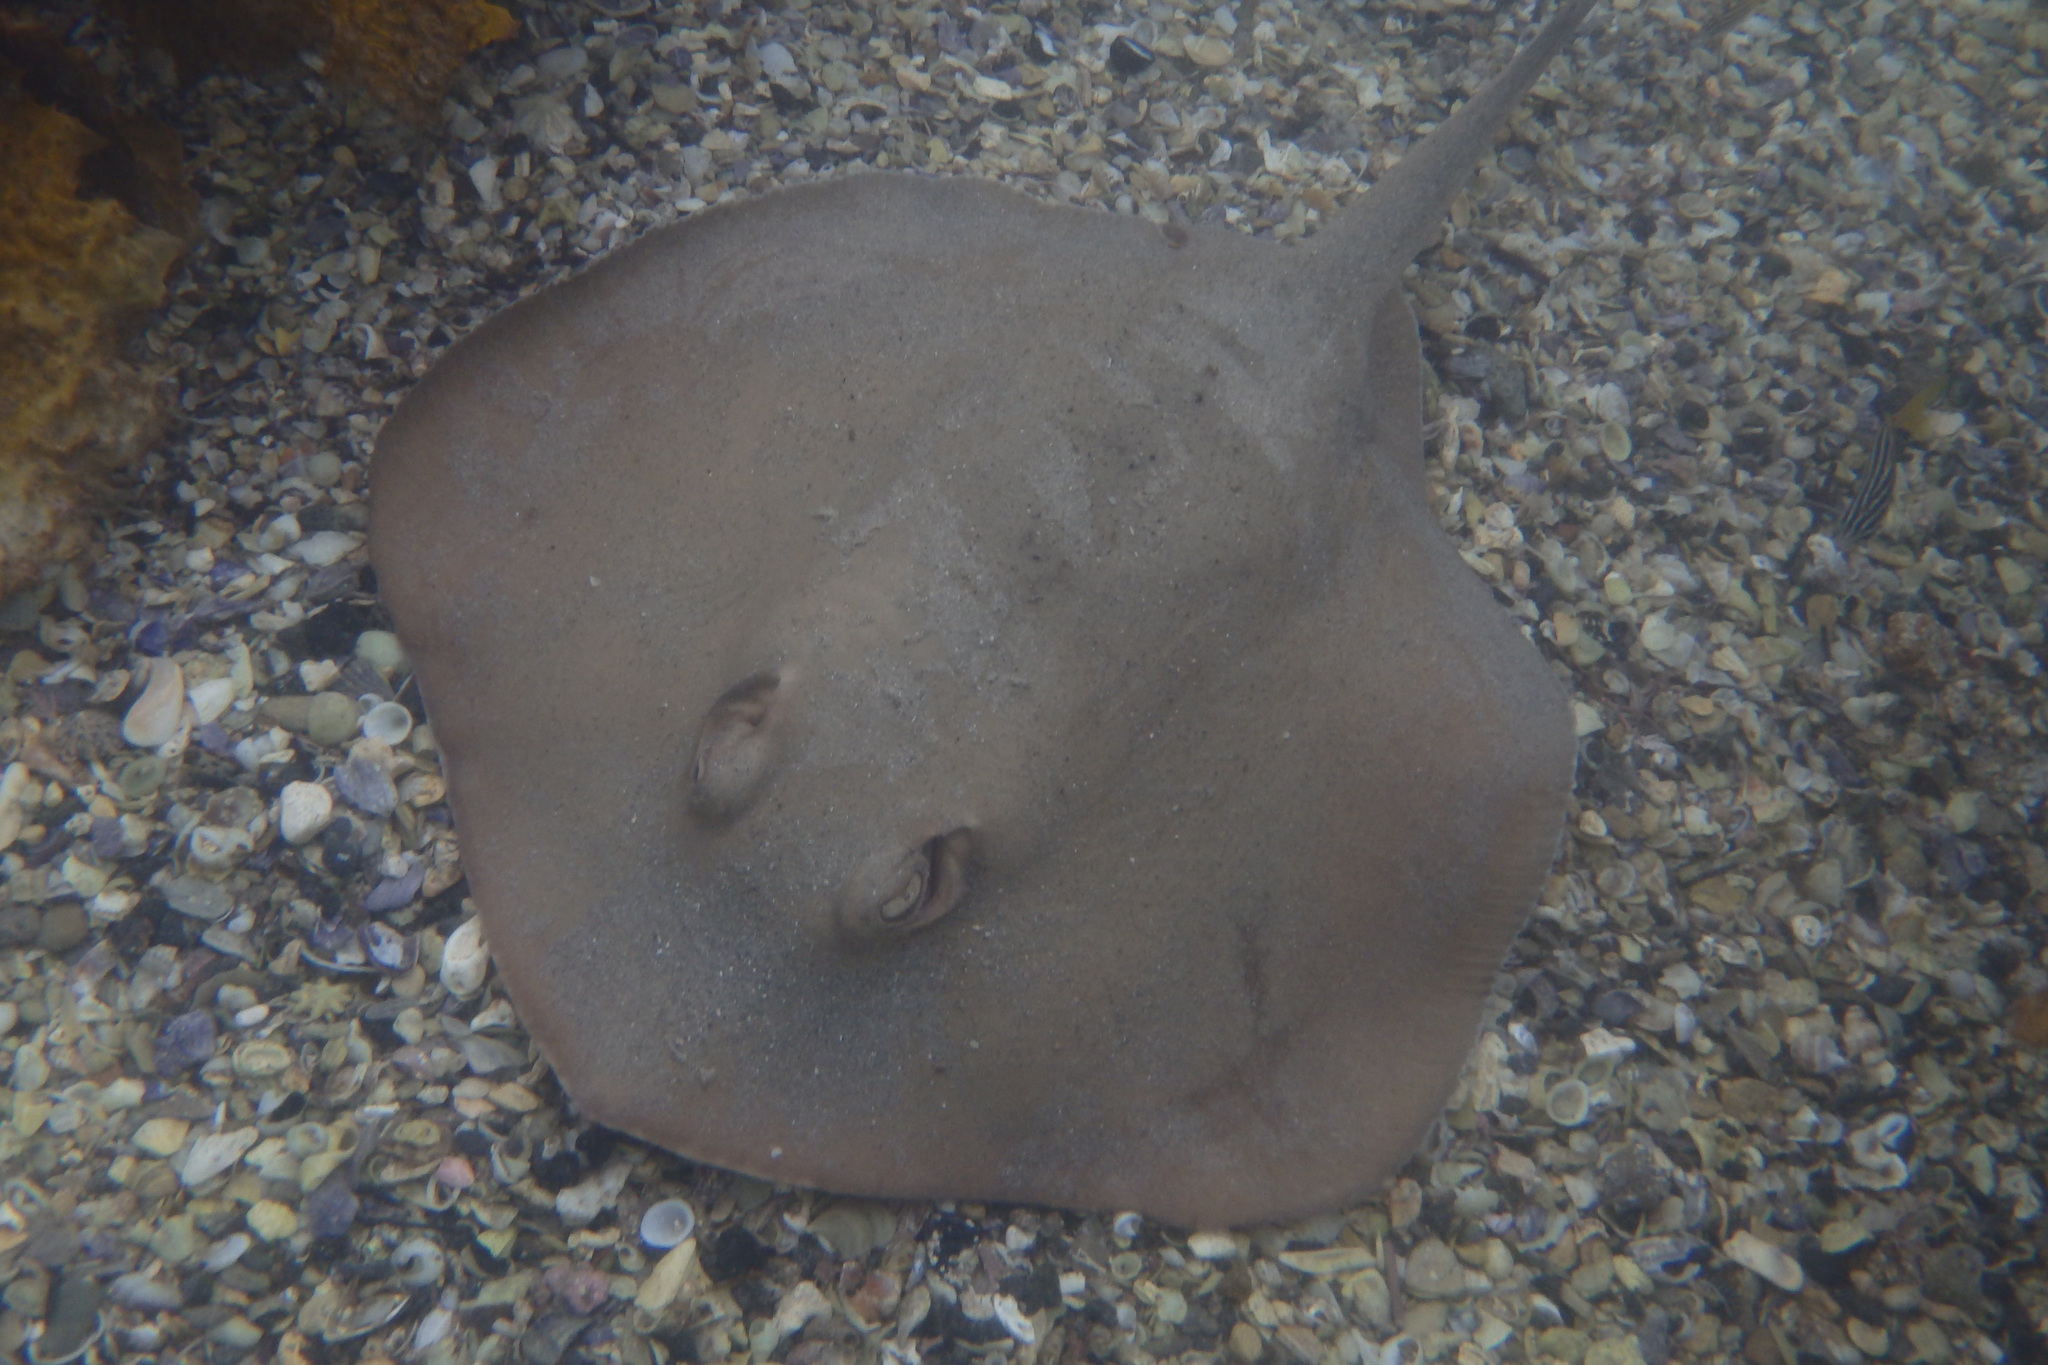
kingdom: Animalia
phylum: Chordata
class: Elasmobranchii
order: Myliobatiformes
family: Urolophidae
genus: Trygonoptera
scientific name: Trygonoptera testacea
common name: Common stingaree
